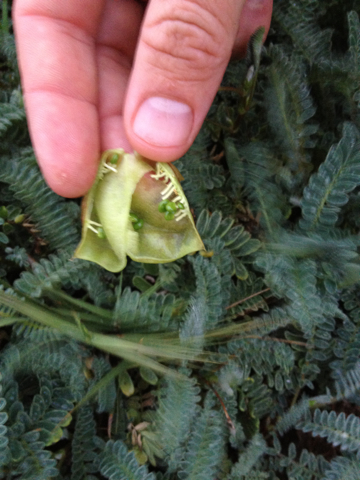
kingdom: Plantae
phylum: Tracheophyta
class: Magnoliopsida
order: Fabales
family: Fabaceae
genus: Astragalus
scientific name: Astragalus nuttallii
